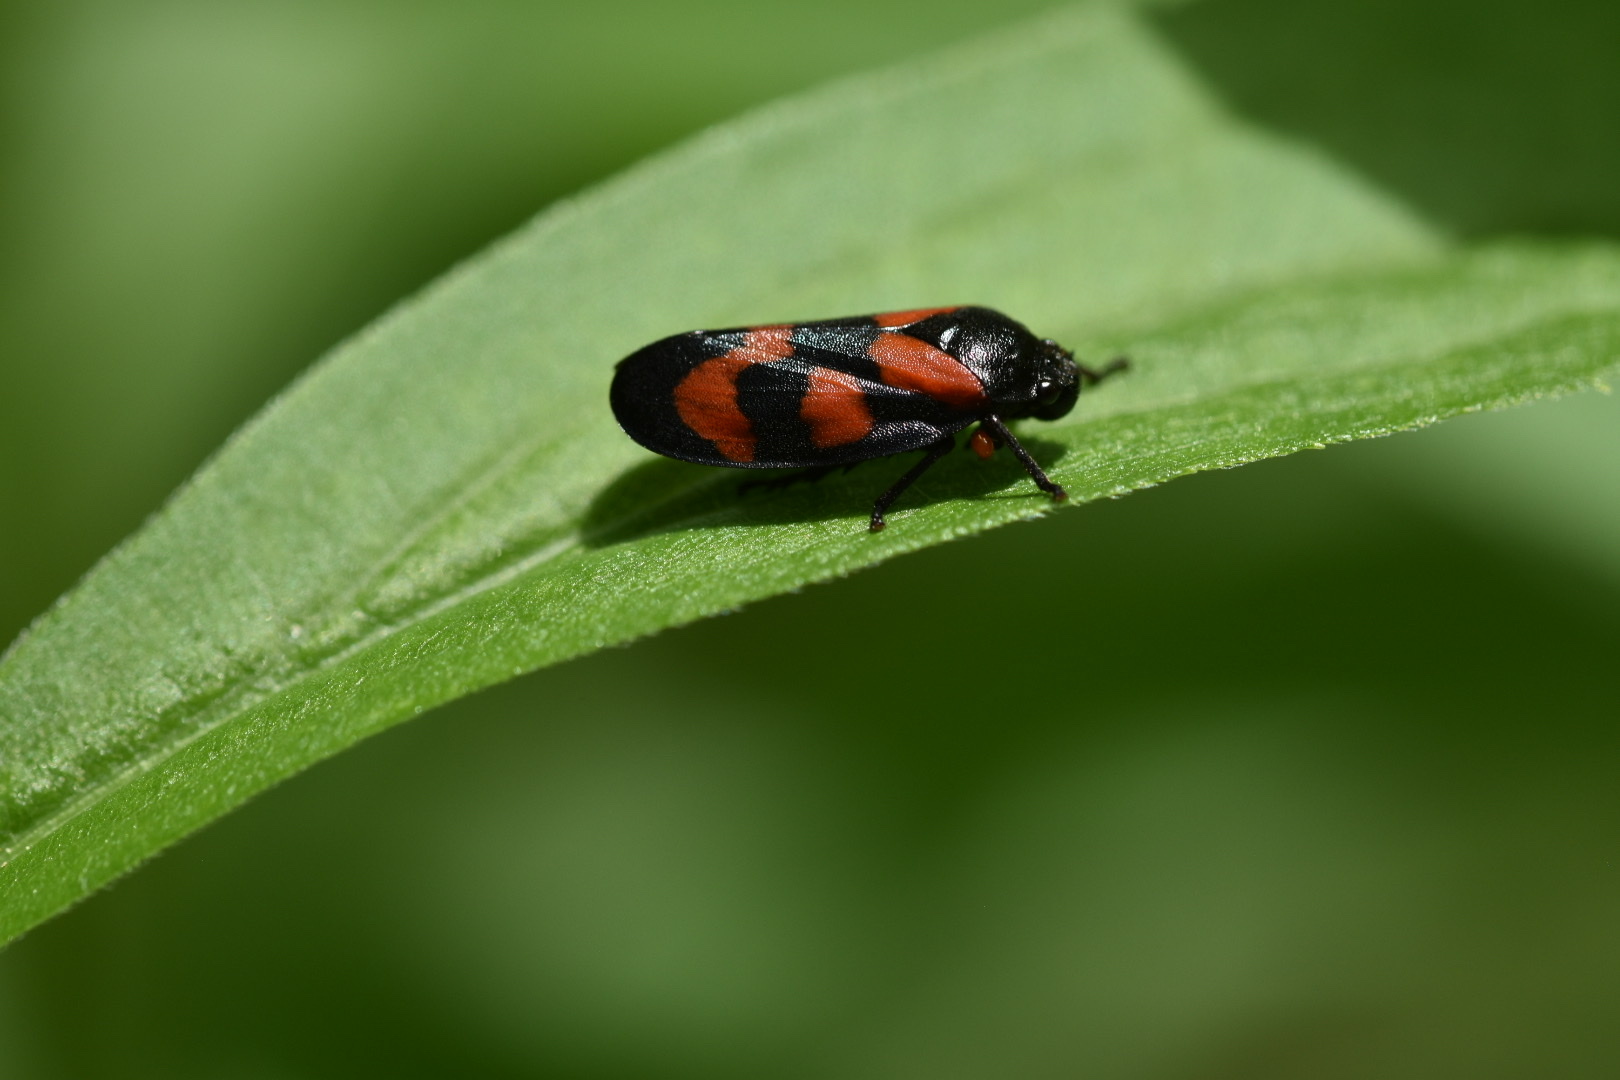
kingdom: Animalia
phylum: Arthropoda
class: Insecta
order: Hemiptera
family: Cercopidae
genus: Cercopis
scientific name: Cercopis vulnerata
